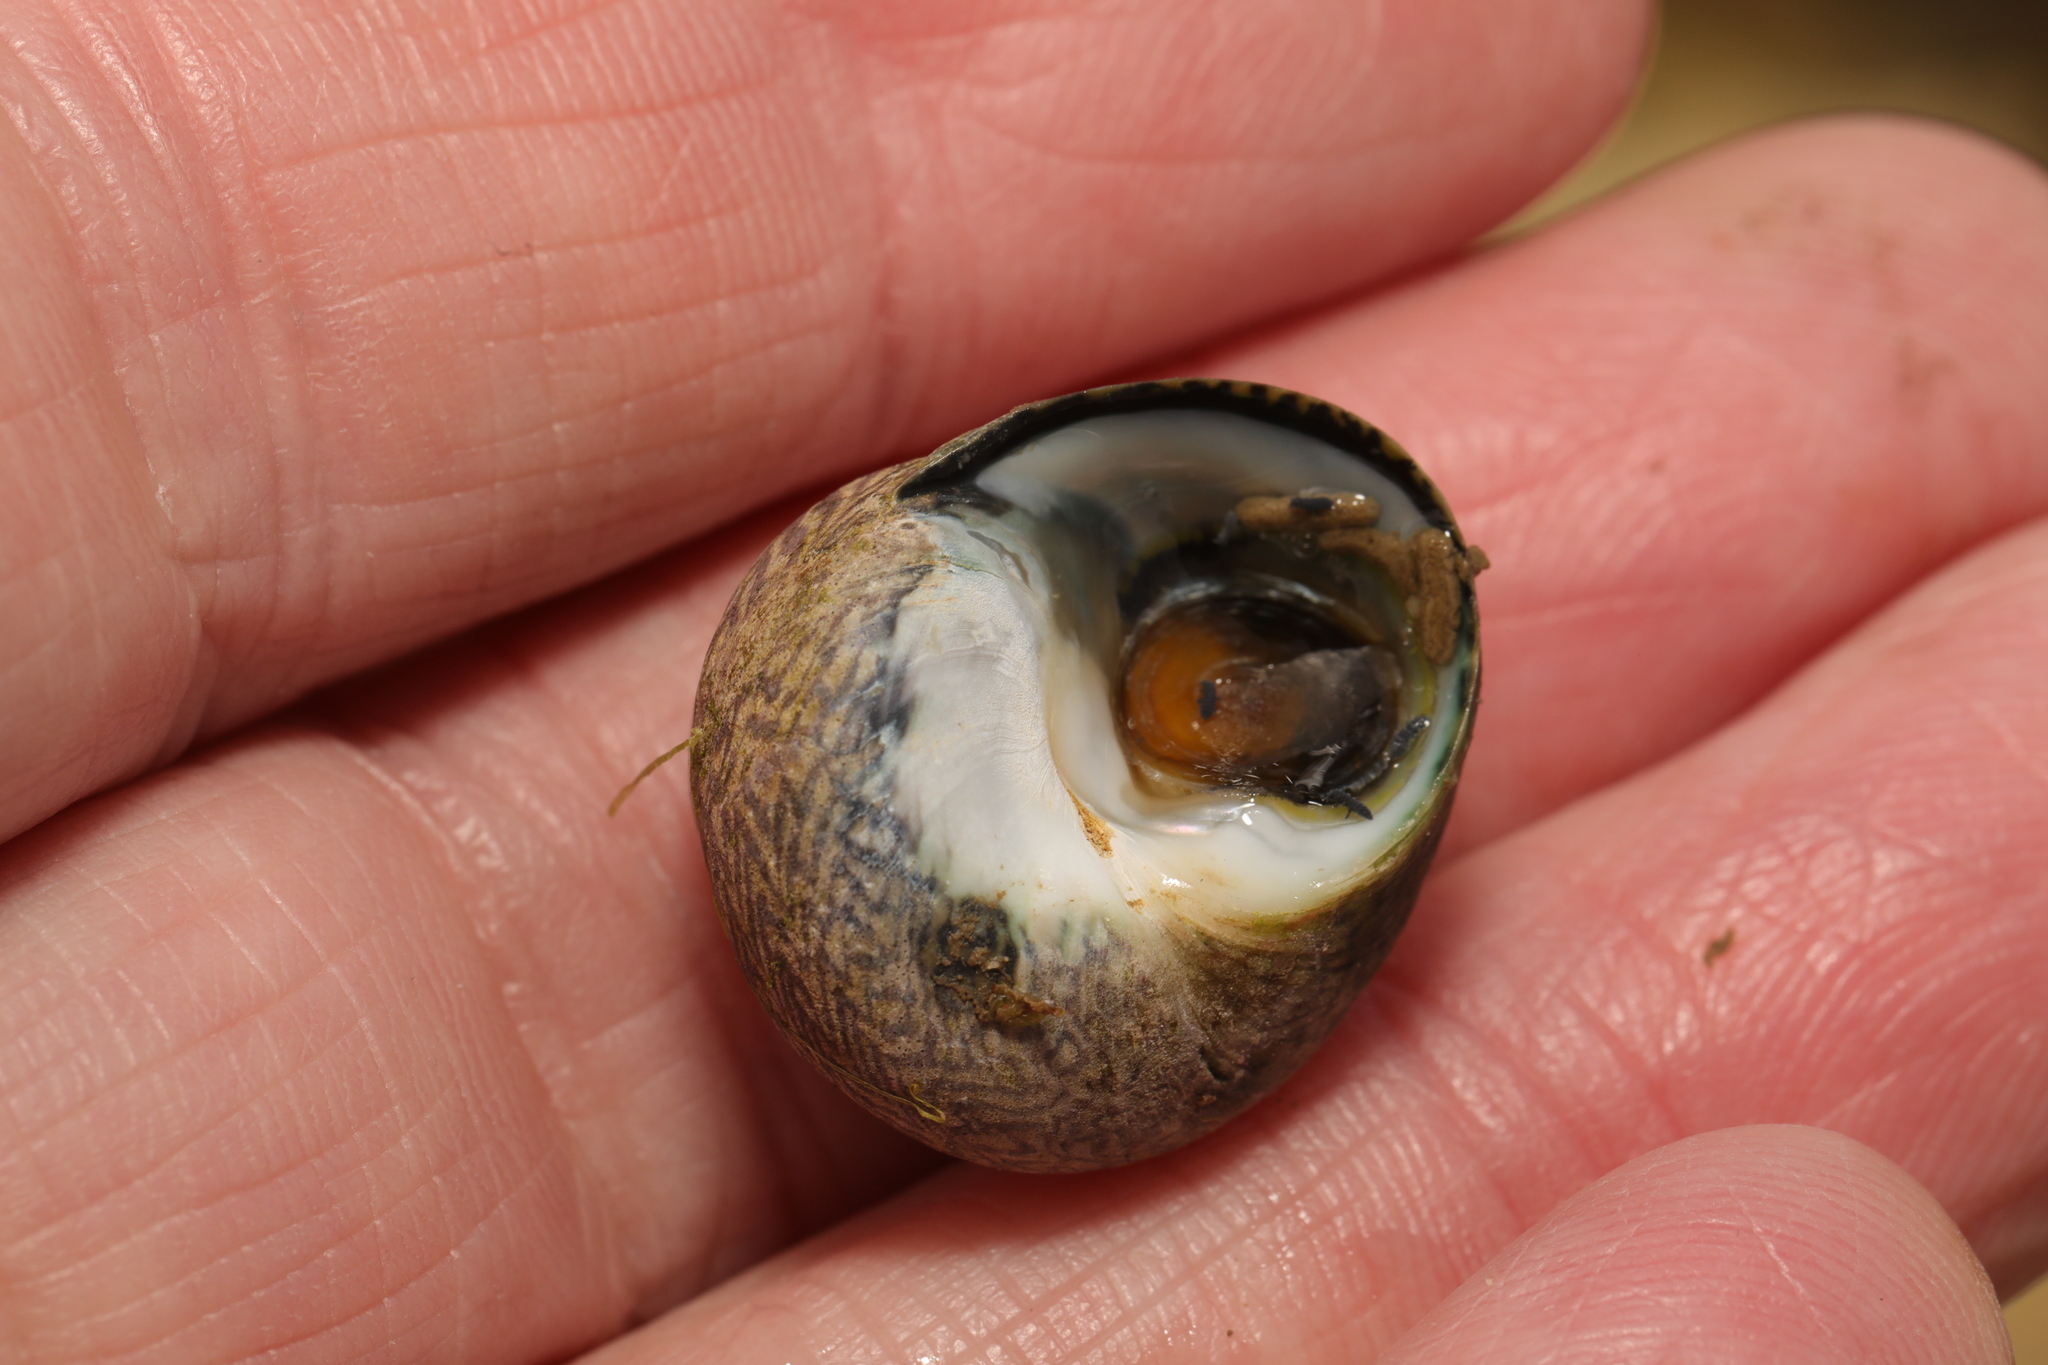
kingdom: Animalia
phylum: Mollusca
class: Gastropoda
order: Trochida
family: Trochidae
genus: Phorcus
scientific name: Phorcus lineatus
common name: Toothed top shell
